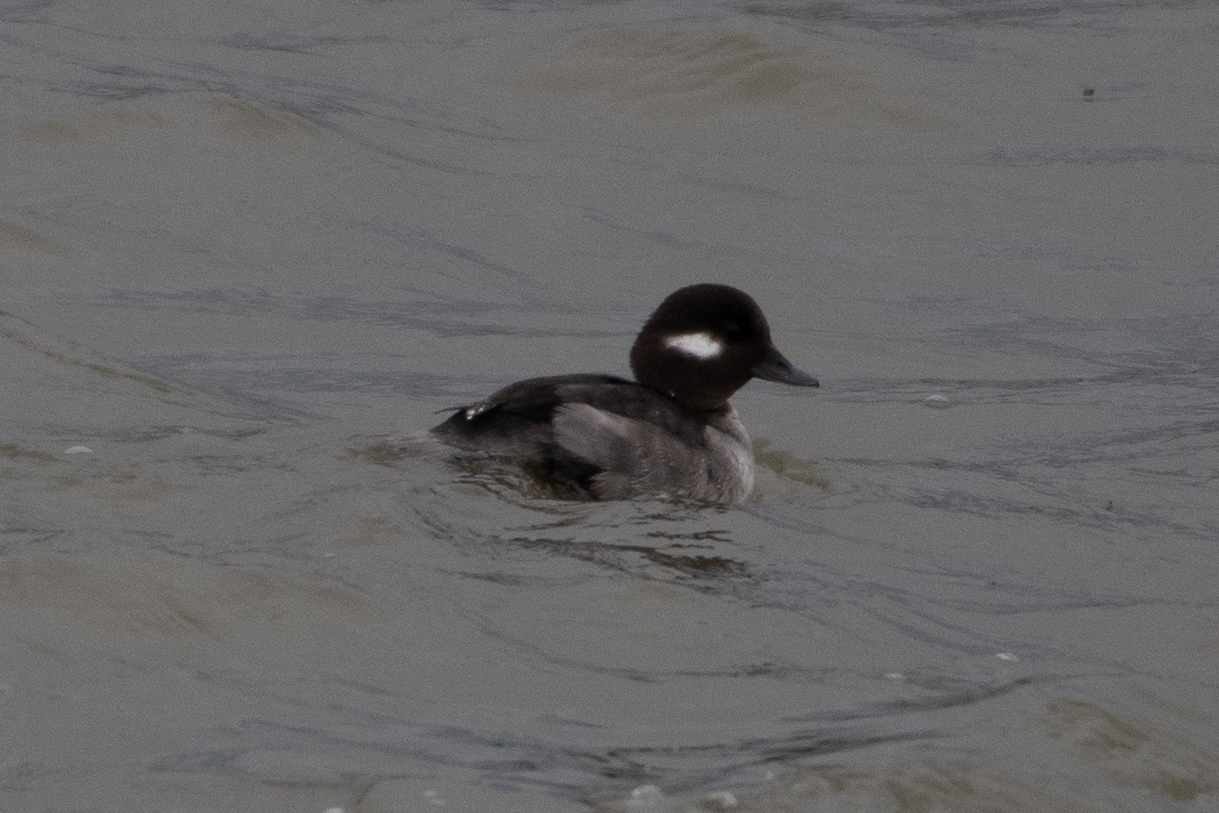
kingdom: Animalia
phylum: Chordata
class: Aves
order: Anseriformes
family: Anatidae
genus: Bucephala
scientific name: Bucephala albeola
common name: Bufflehead
